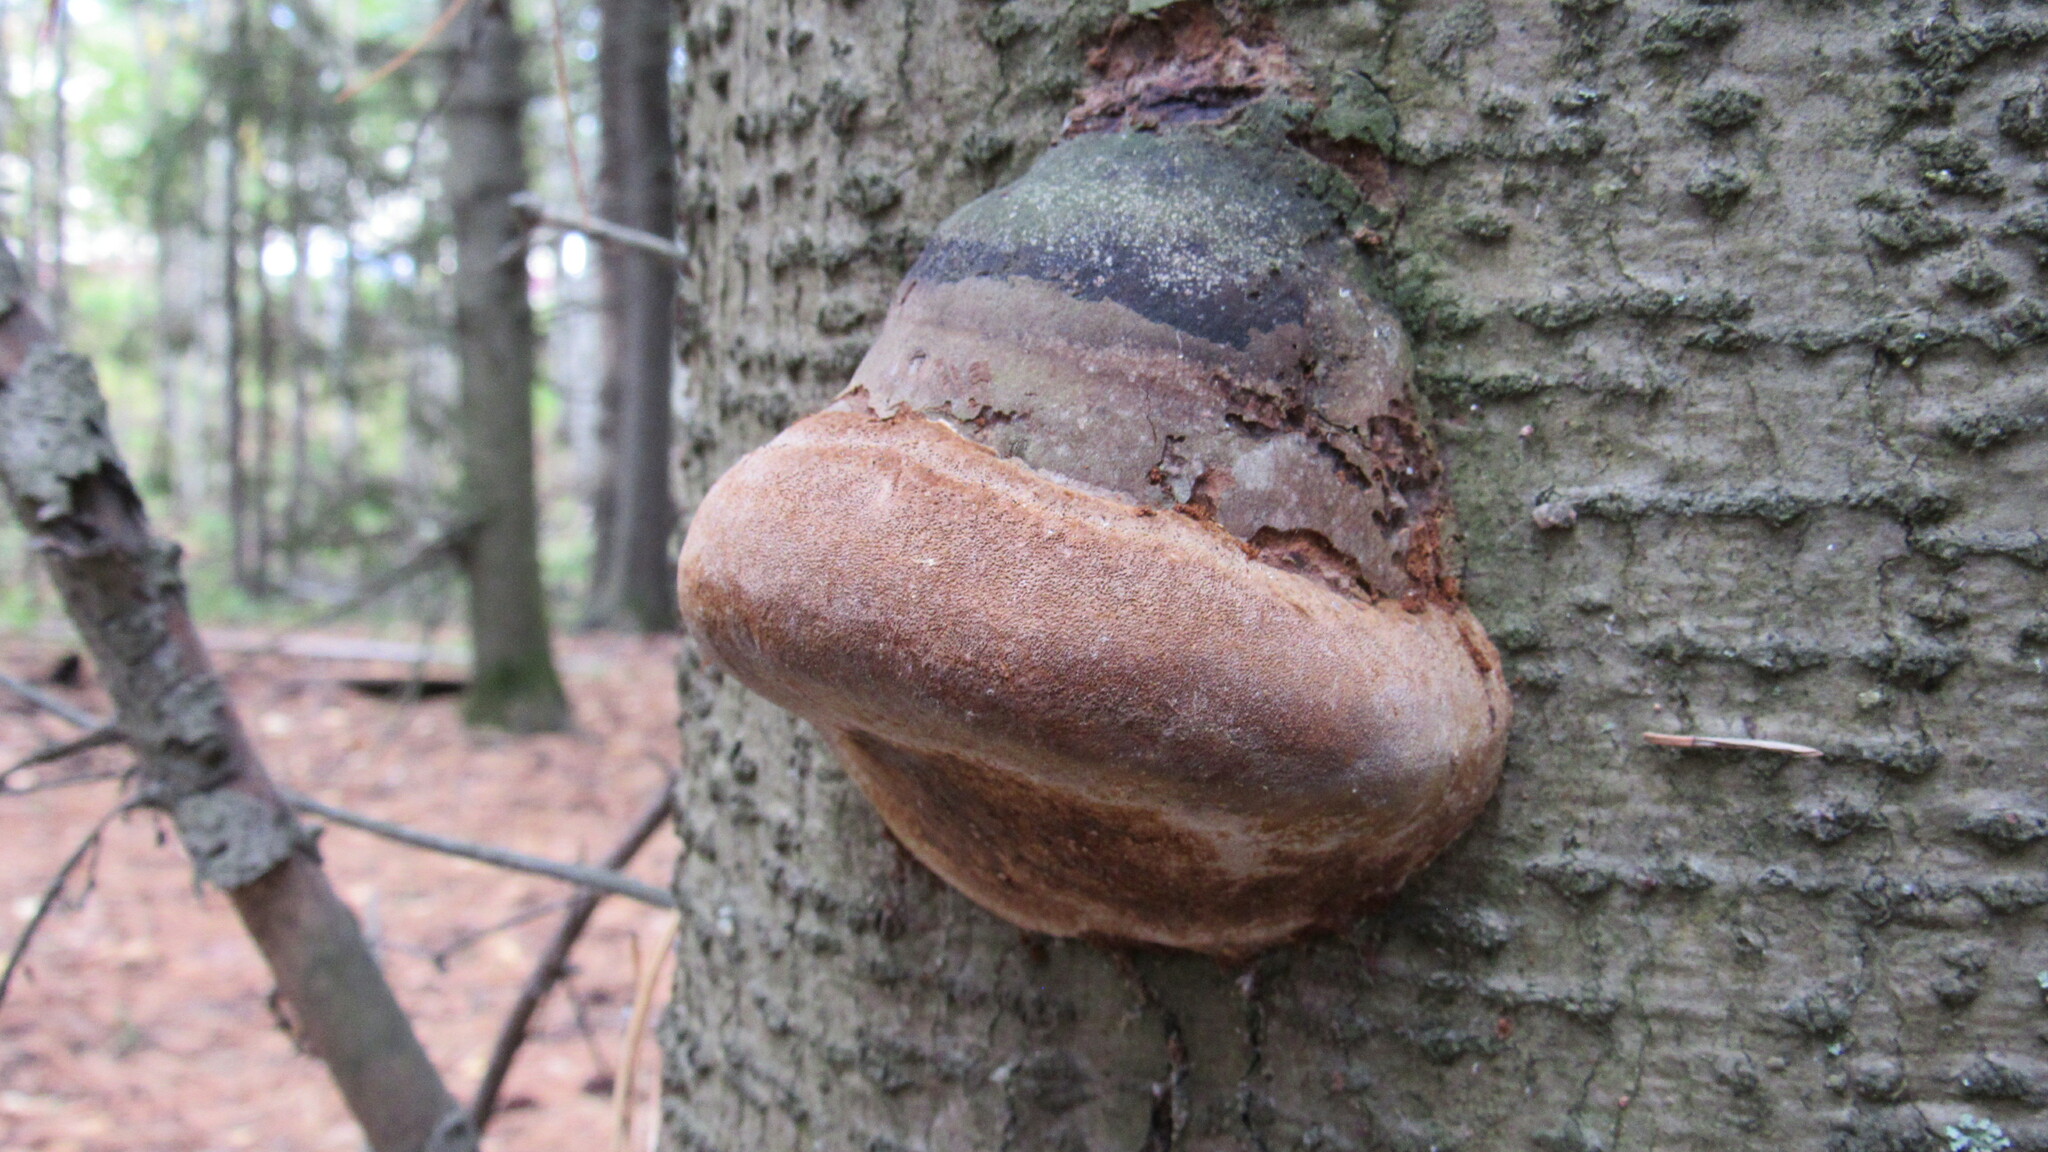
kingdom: Fungi
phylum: Basidiomycota
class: Agaricomycetes
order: Hymenochaetales
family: Hymenochaetaceae
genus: Phellinus
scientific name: Phellinus hartigii
